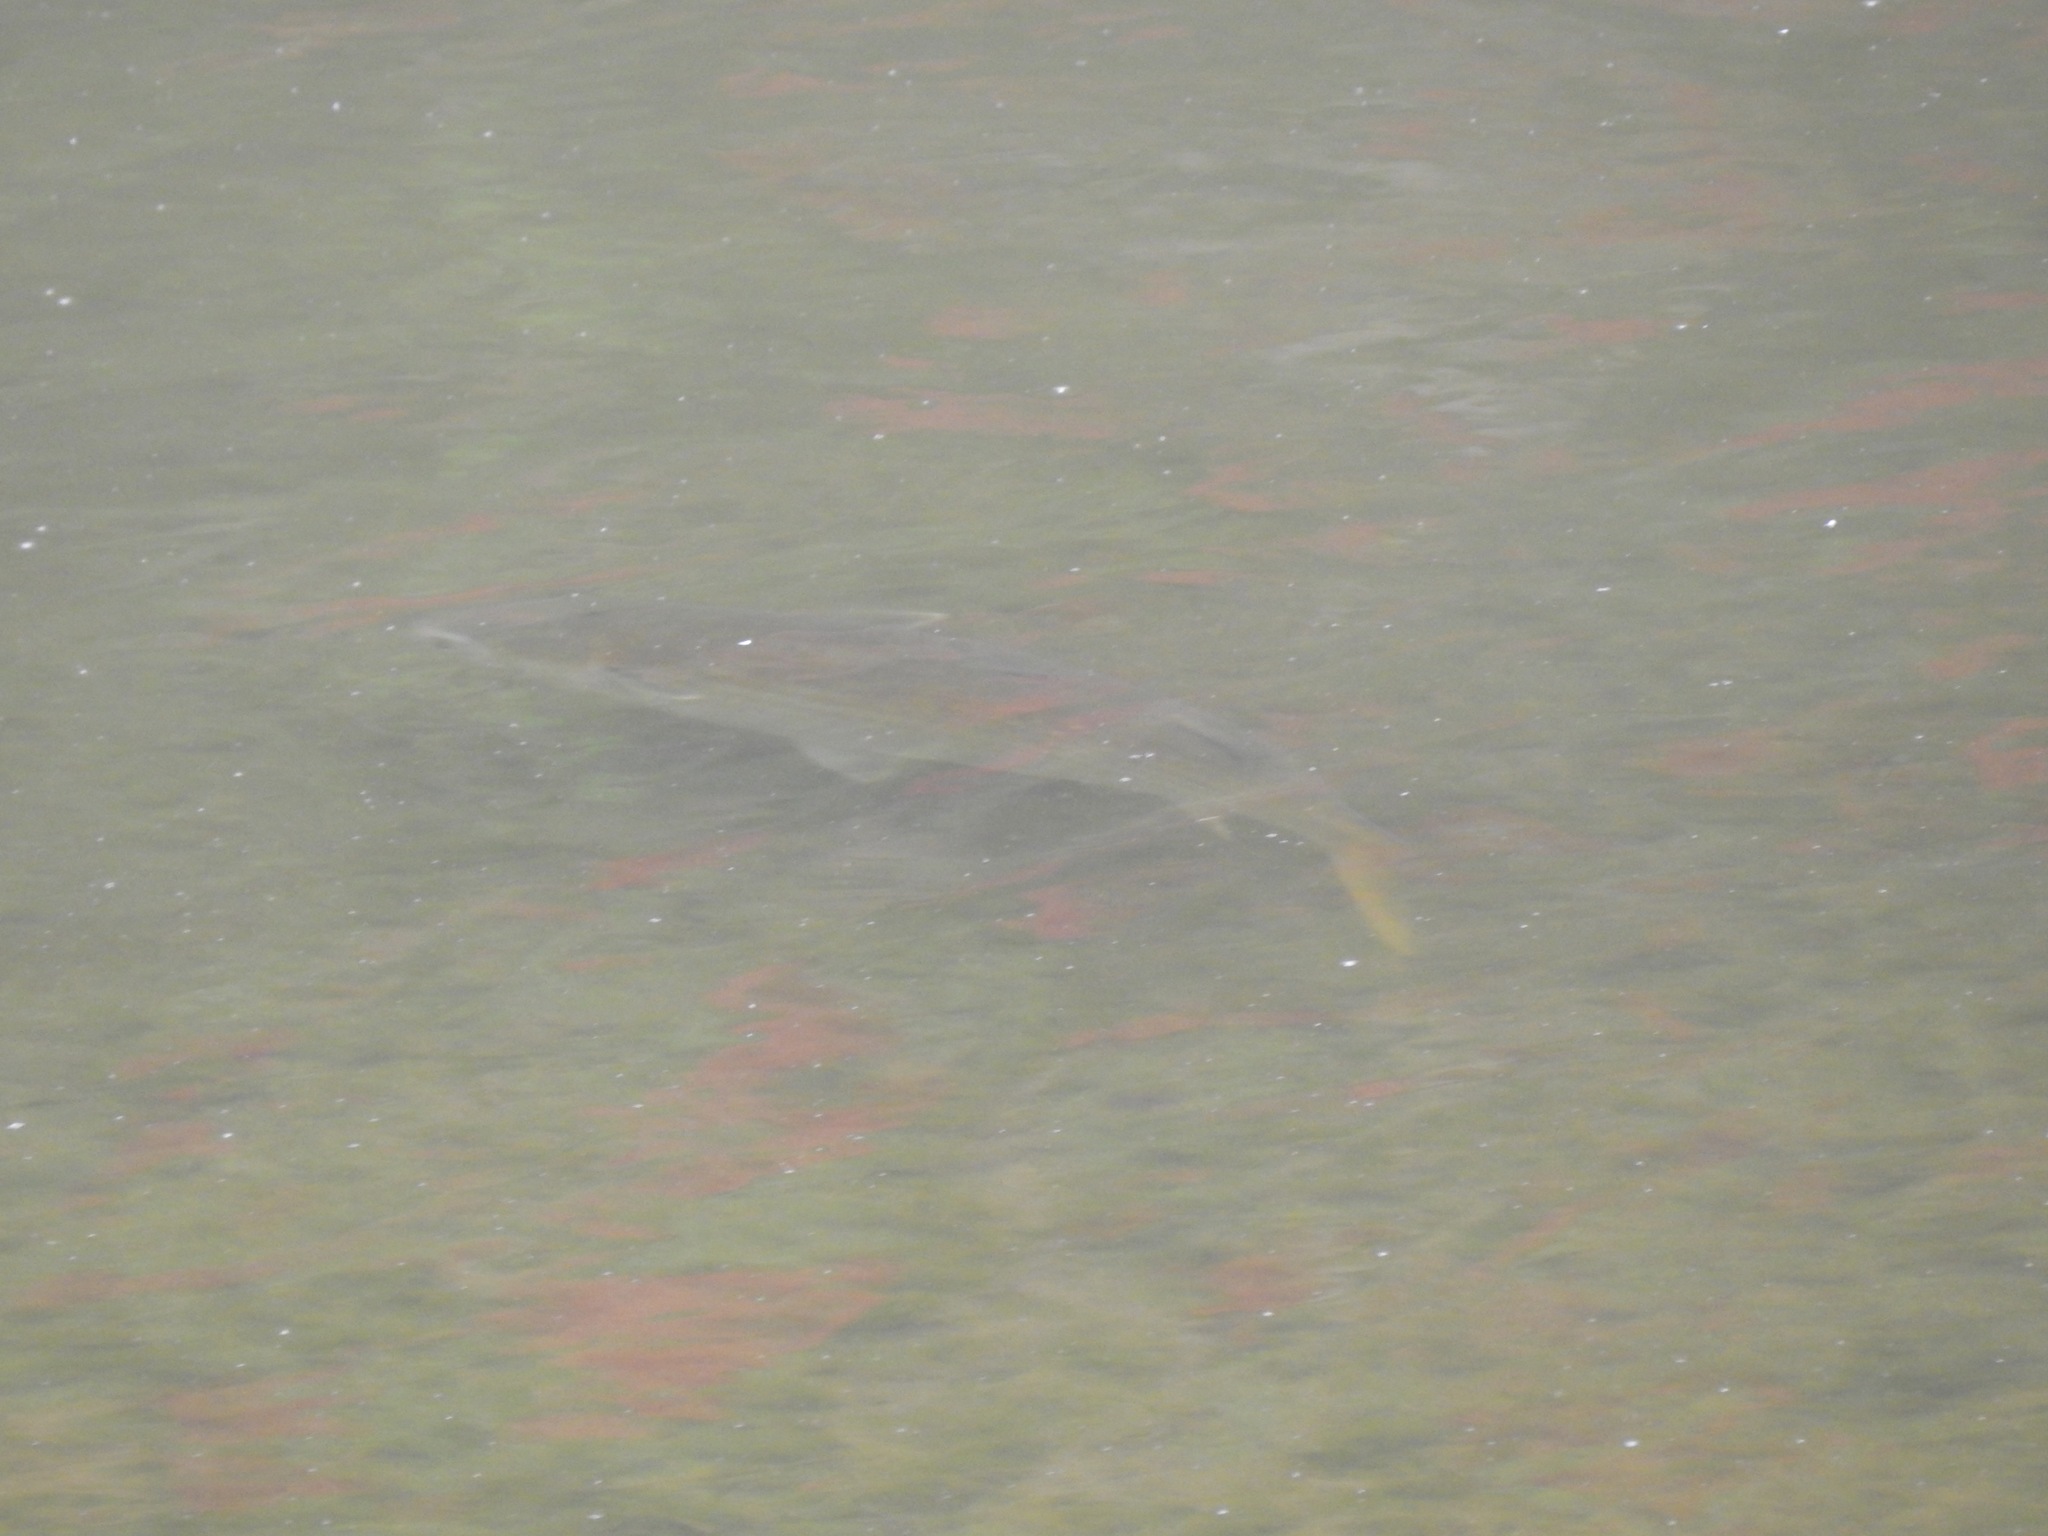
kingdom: Animalia
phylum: Chordata
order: Mugiliformes
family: Mugilidae
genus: Mugil
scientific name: Mugil cephalus
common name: Grey mullet
